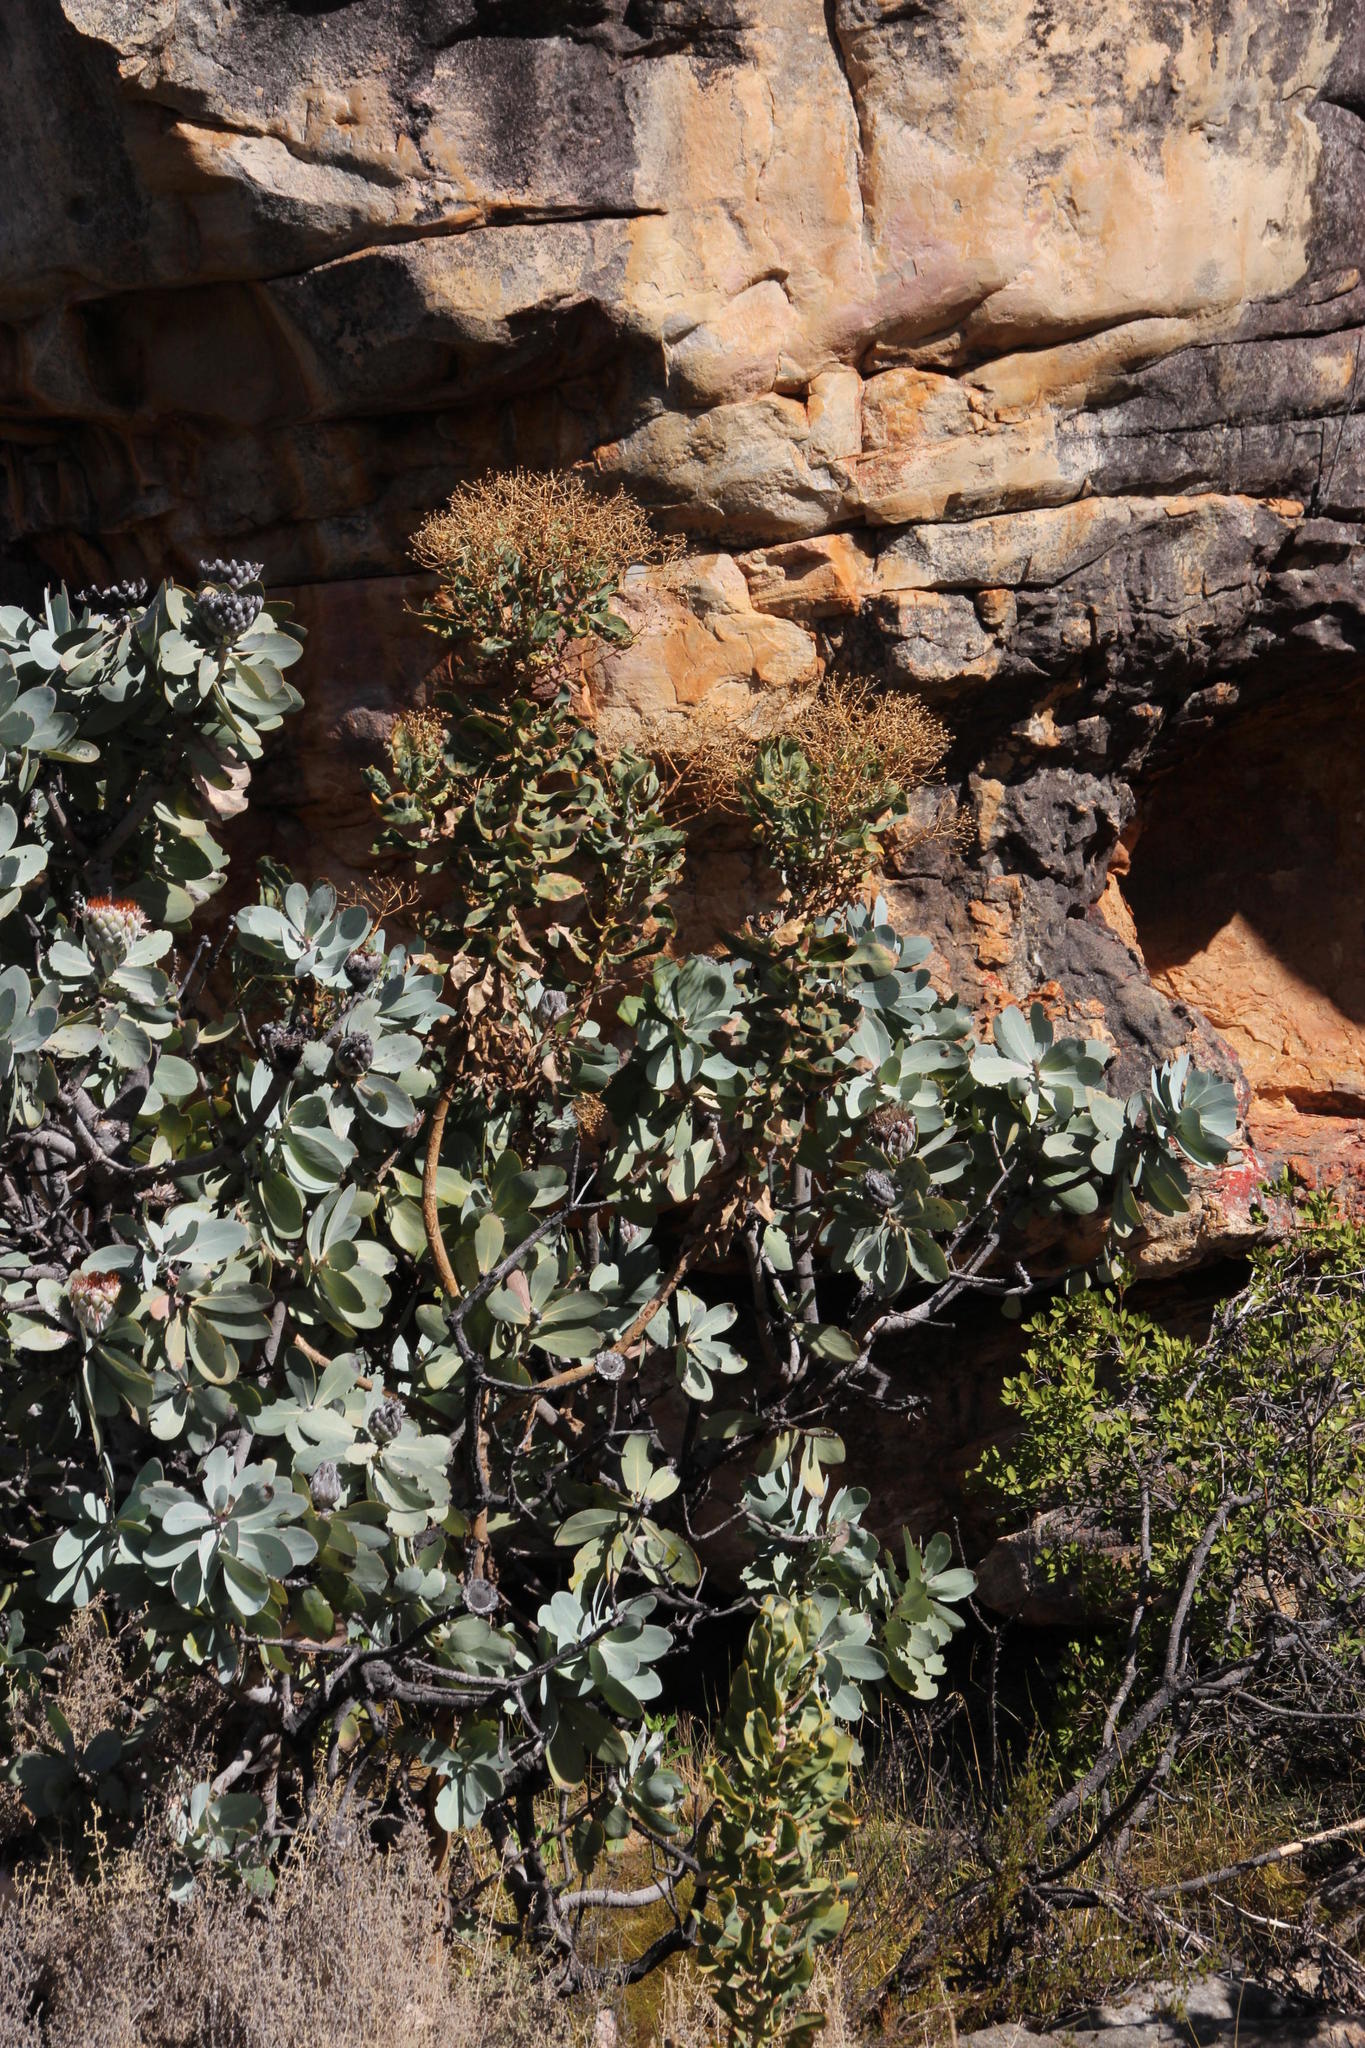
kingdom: Plantae
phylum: Tracheophyta
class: Magnoliopsida
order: Asterales
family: Asteraceae
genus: Othonna
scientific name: Othonna parviflora
